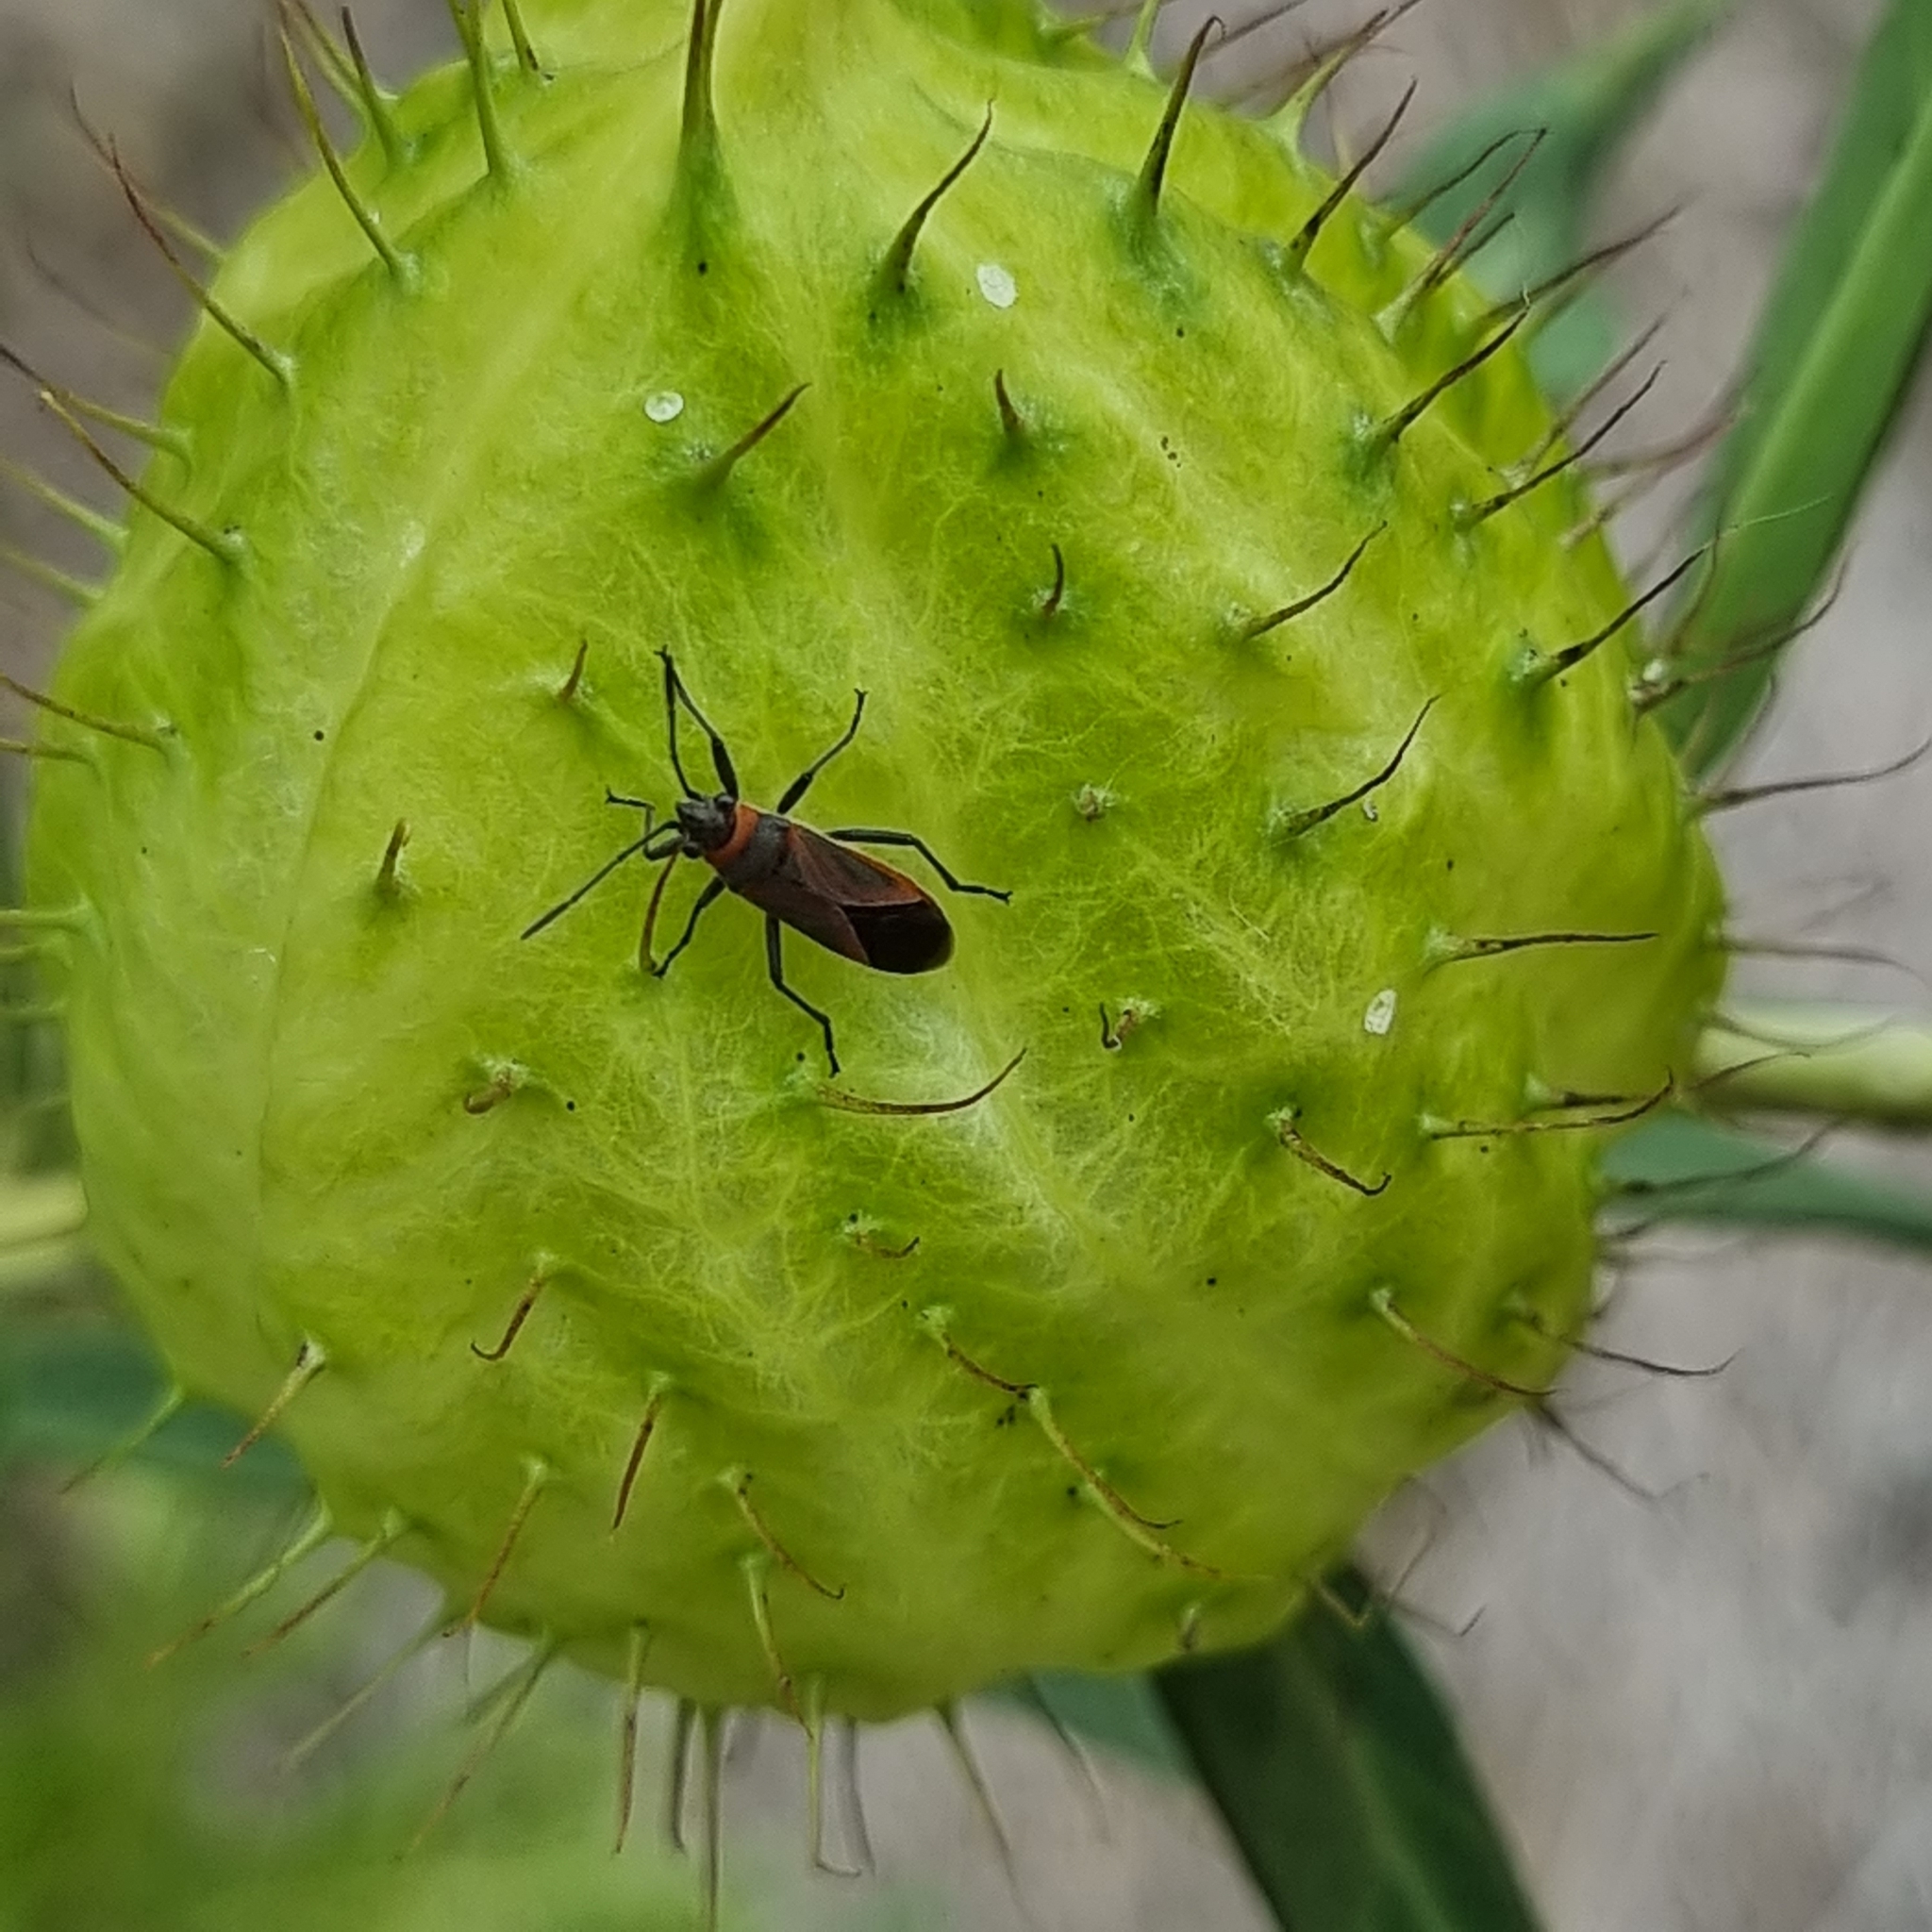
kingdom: Animalia
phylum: Arthropoda
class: Insecta
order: Hemiptera
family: Lygaeidae
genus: Arocatus
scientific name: Arocatus rusticus
